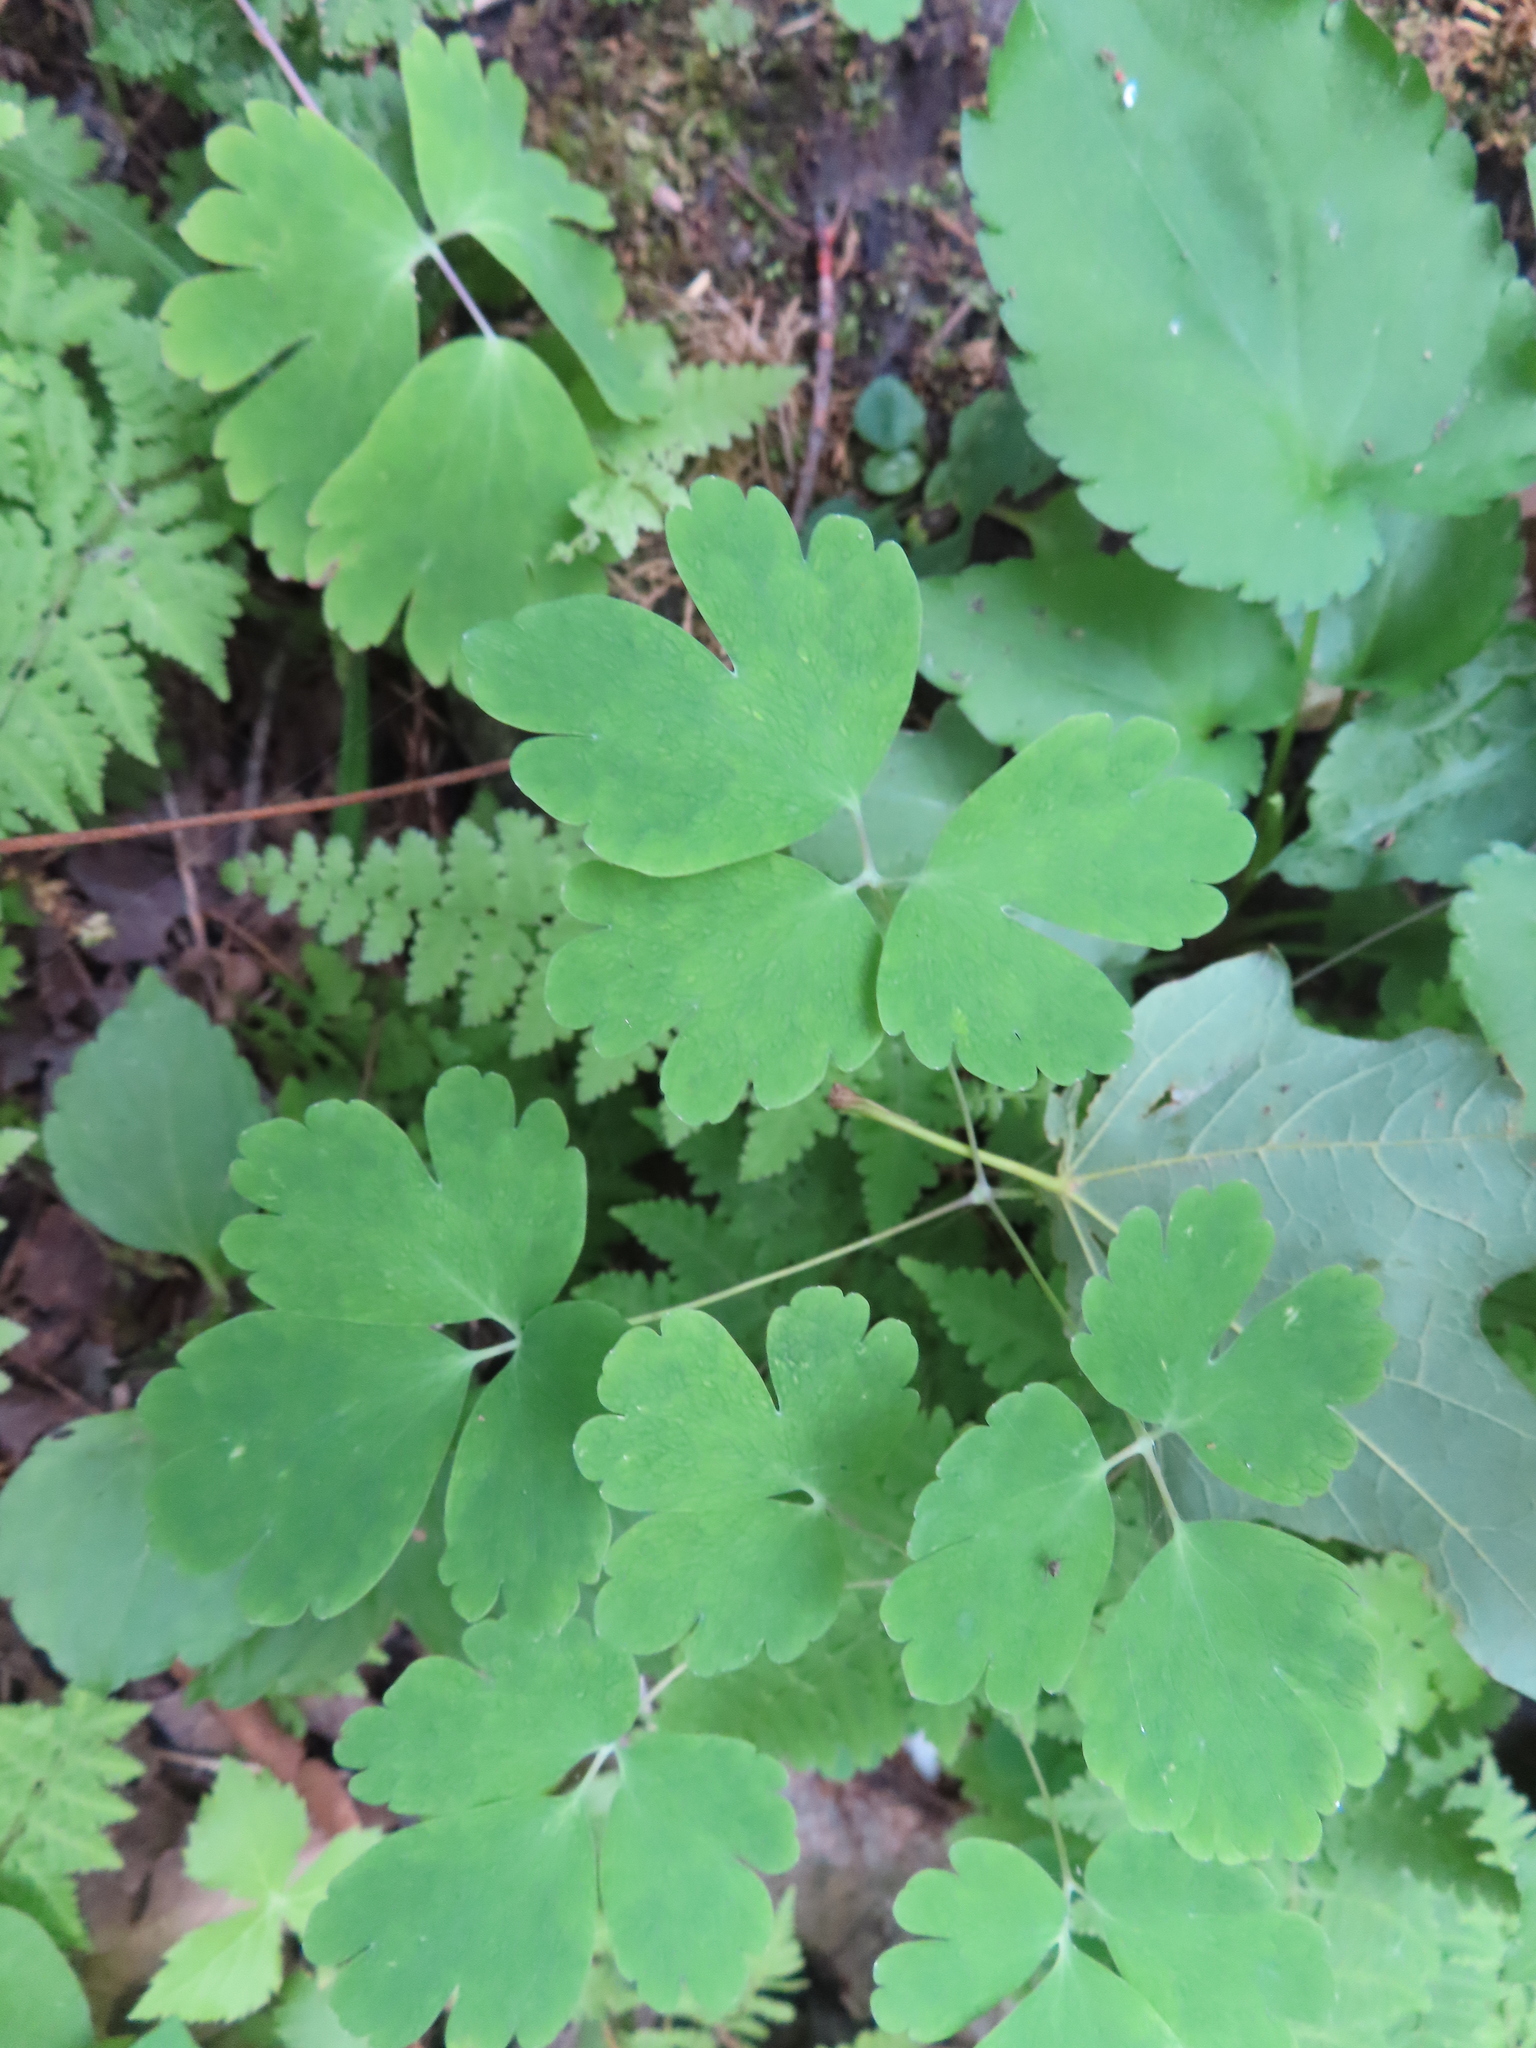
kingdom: Plantae
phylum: Tracheophyta
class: Magnoliopsida
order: Ranunculales
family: Ranunculaceae
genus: Aquilegia
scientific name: Aquilegia canadensis
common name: American columbine
